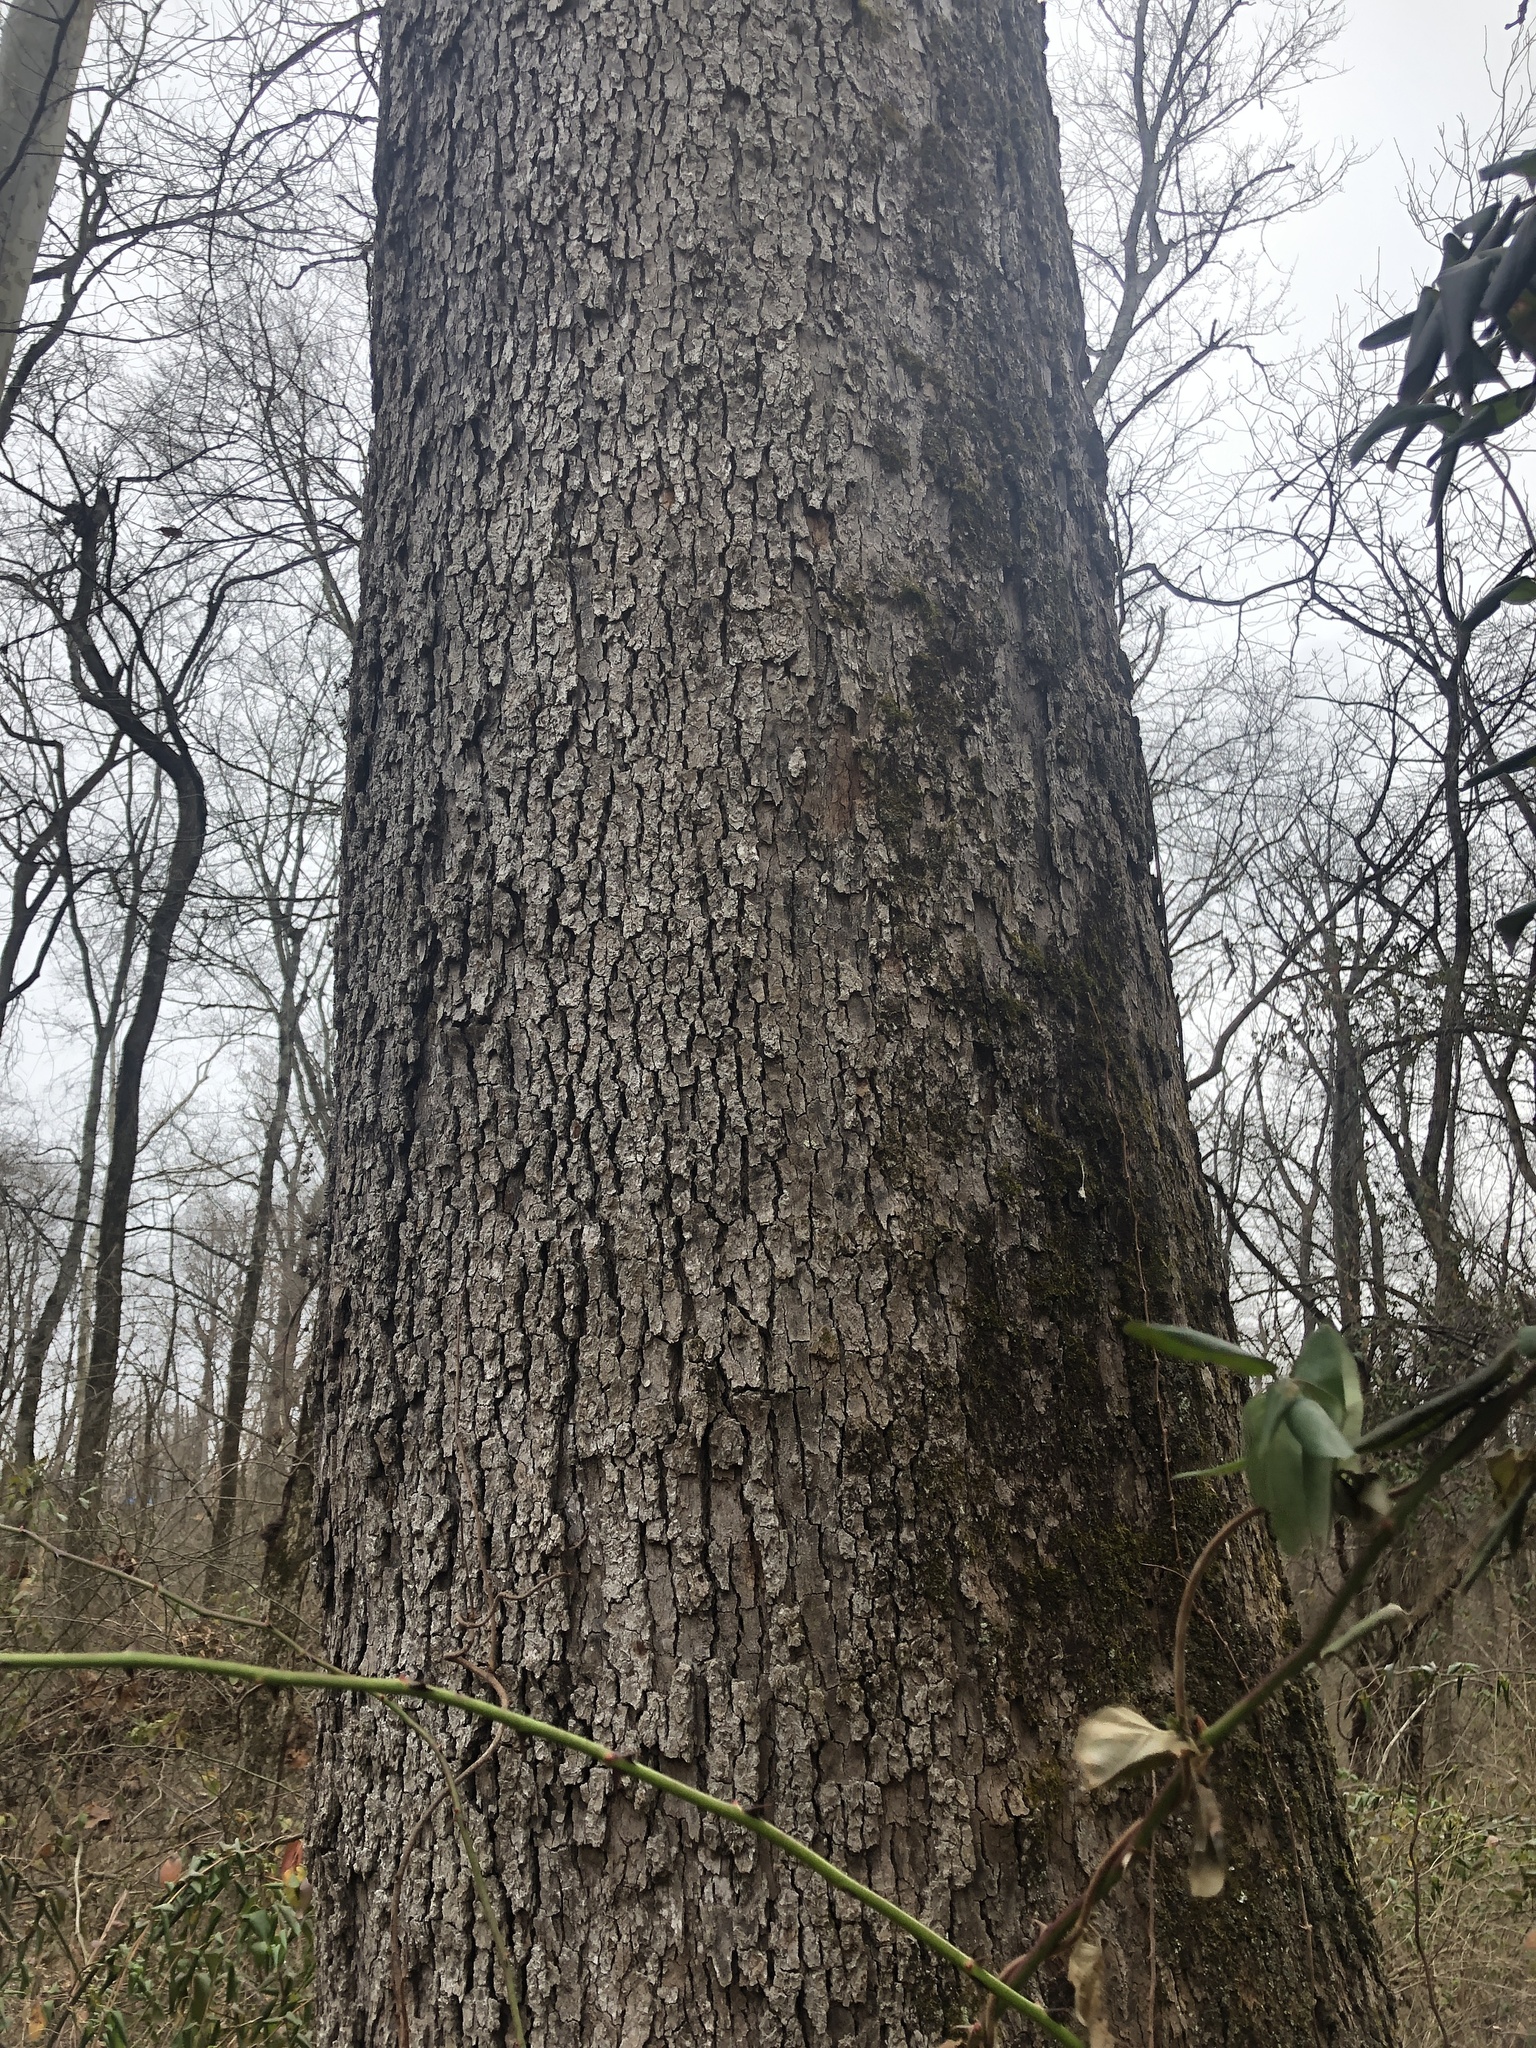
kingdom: Plantae
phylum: Tracheophyta
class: Magnoliopsida
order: Proteales
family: Platanaceae
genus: Platanus
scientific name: Platanus occidentalis
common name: American sycamore
